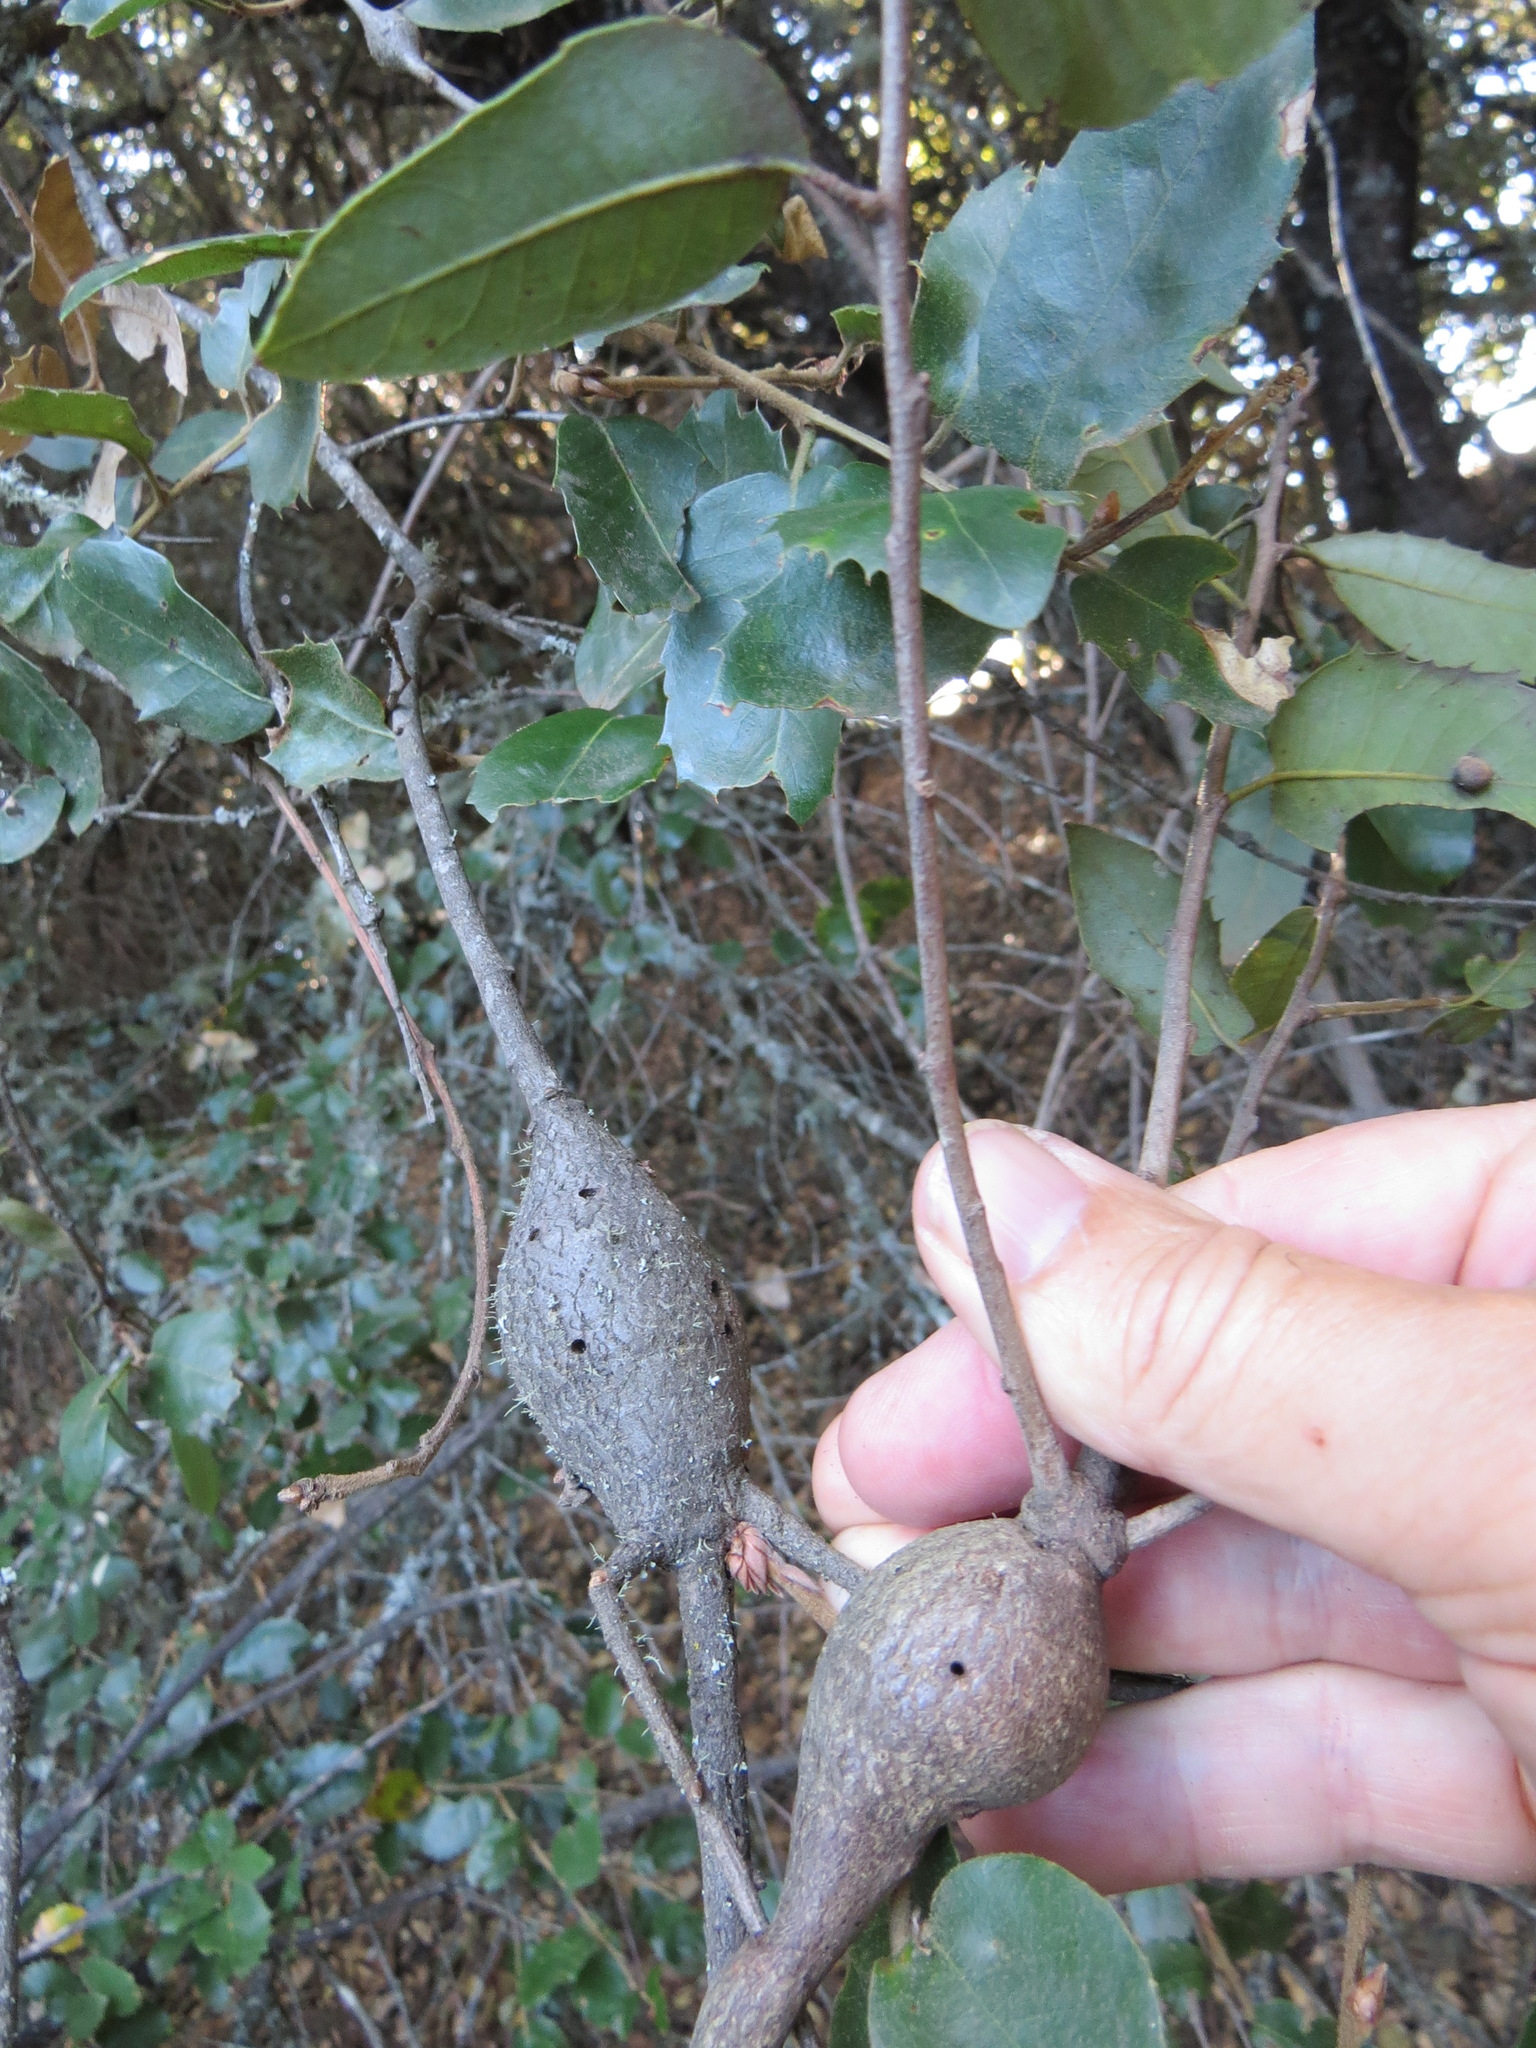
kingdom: Animalia
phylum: Arthropoda
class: Insecta
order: Hymenoptera
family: Cynipidae
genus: Disholcaspis
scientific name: Disholcaspis spectabilis
